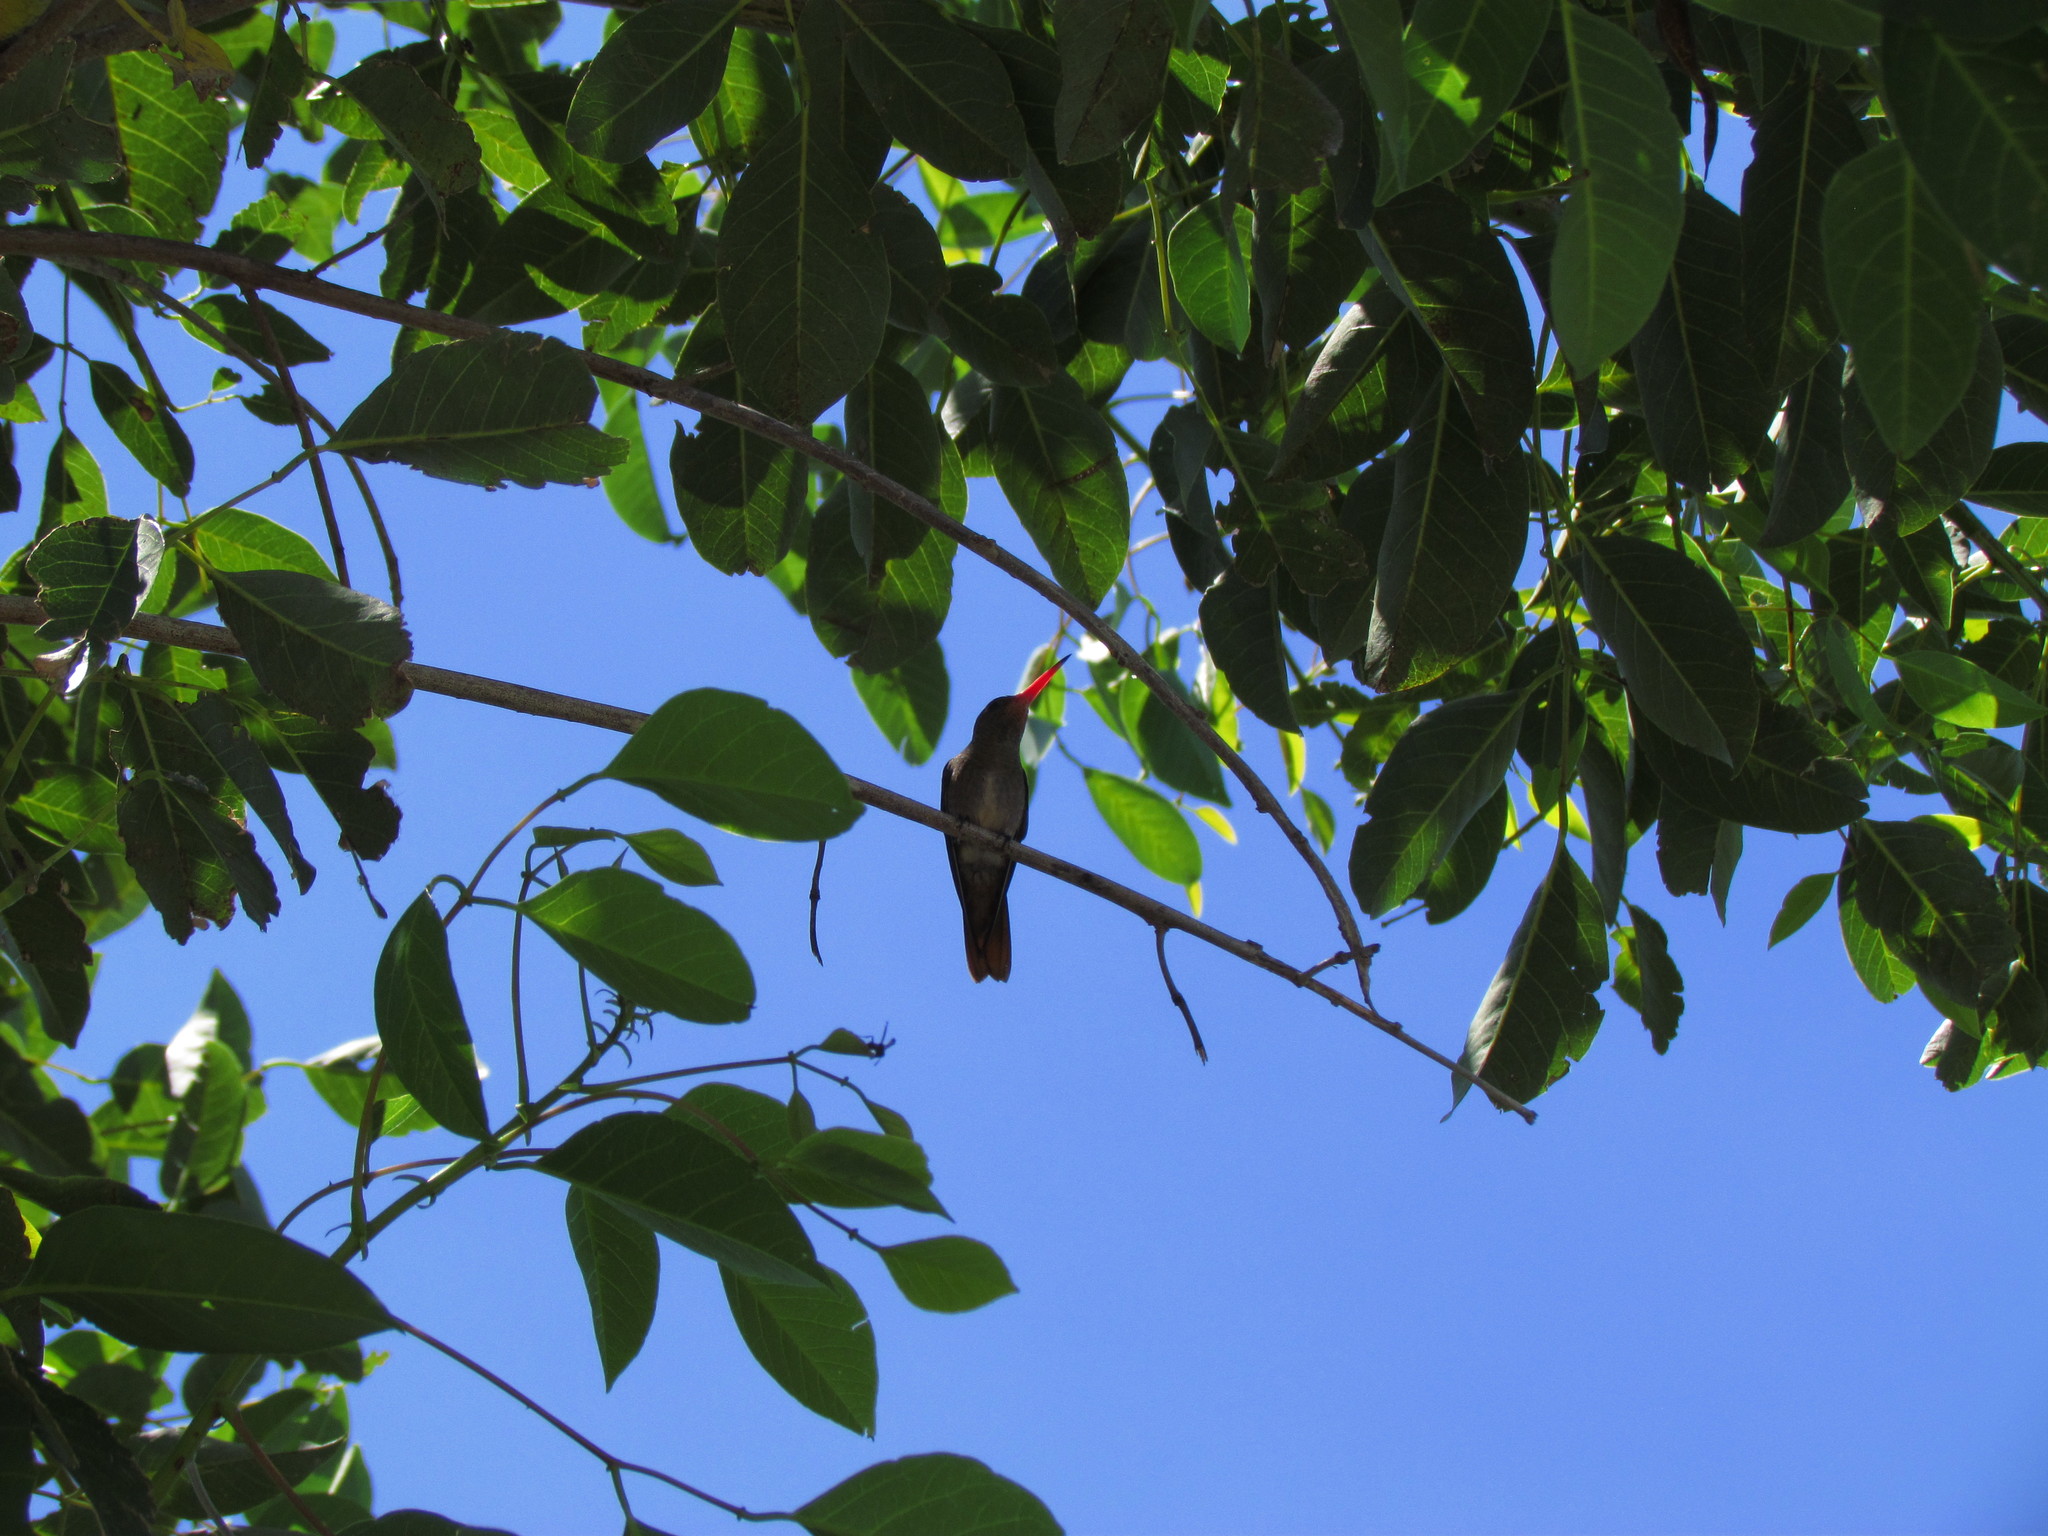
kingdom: Animalia
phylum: Chordata
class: Aves
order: Apodiformes
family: Trochilidae
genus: Hylocharis
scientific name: Hylocharis chrysura
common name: Gilded sapphire
